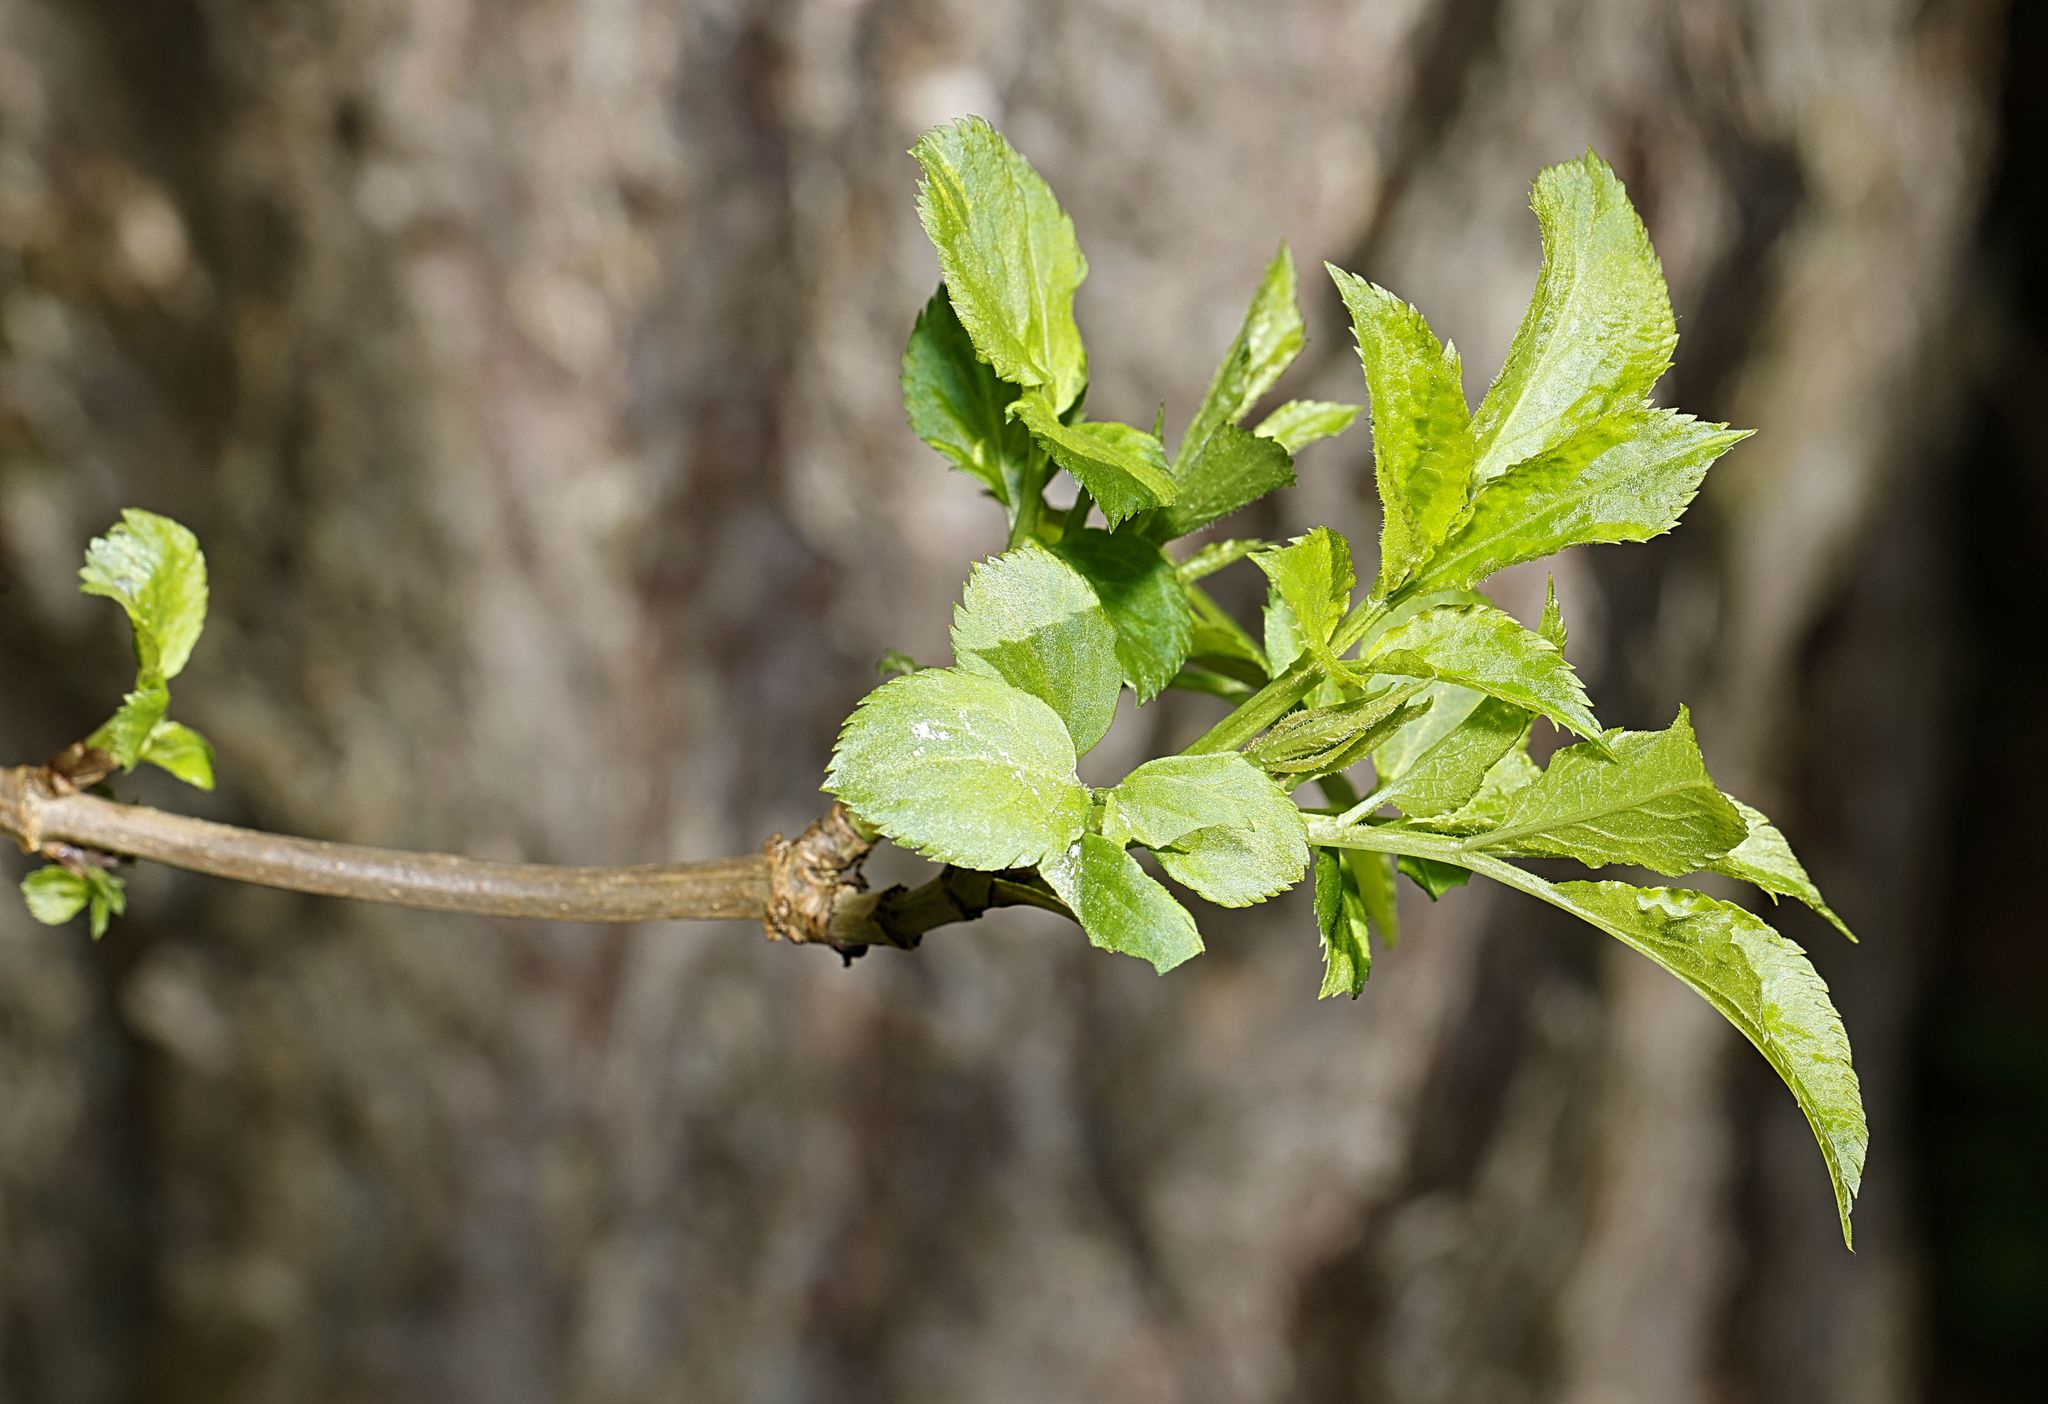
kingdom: Plantae
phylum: Tracheophyta
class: Magnoliopsida
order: Dipsacales
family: Viburnaceae
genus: Sambucus
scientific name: Sambucus nigra
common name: Elder
